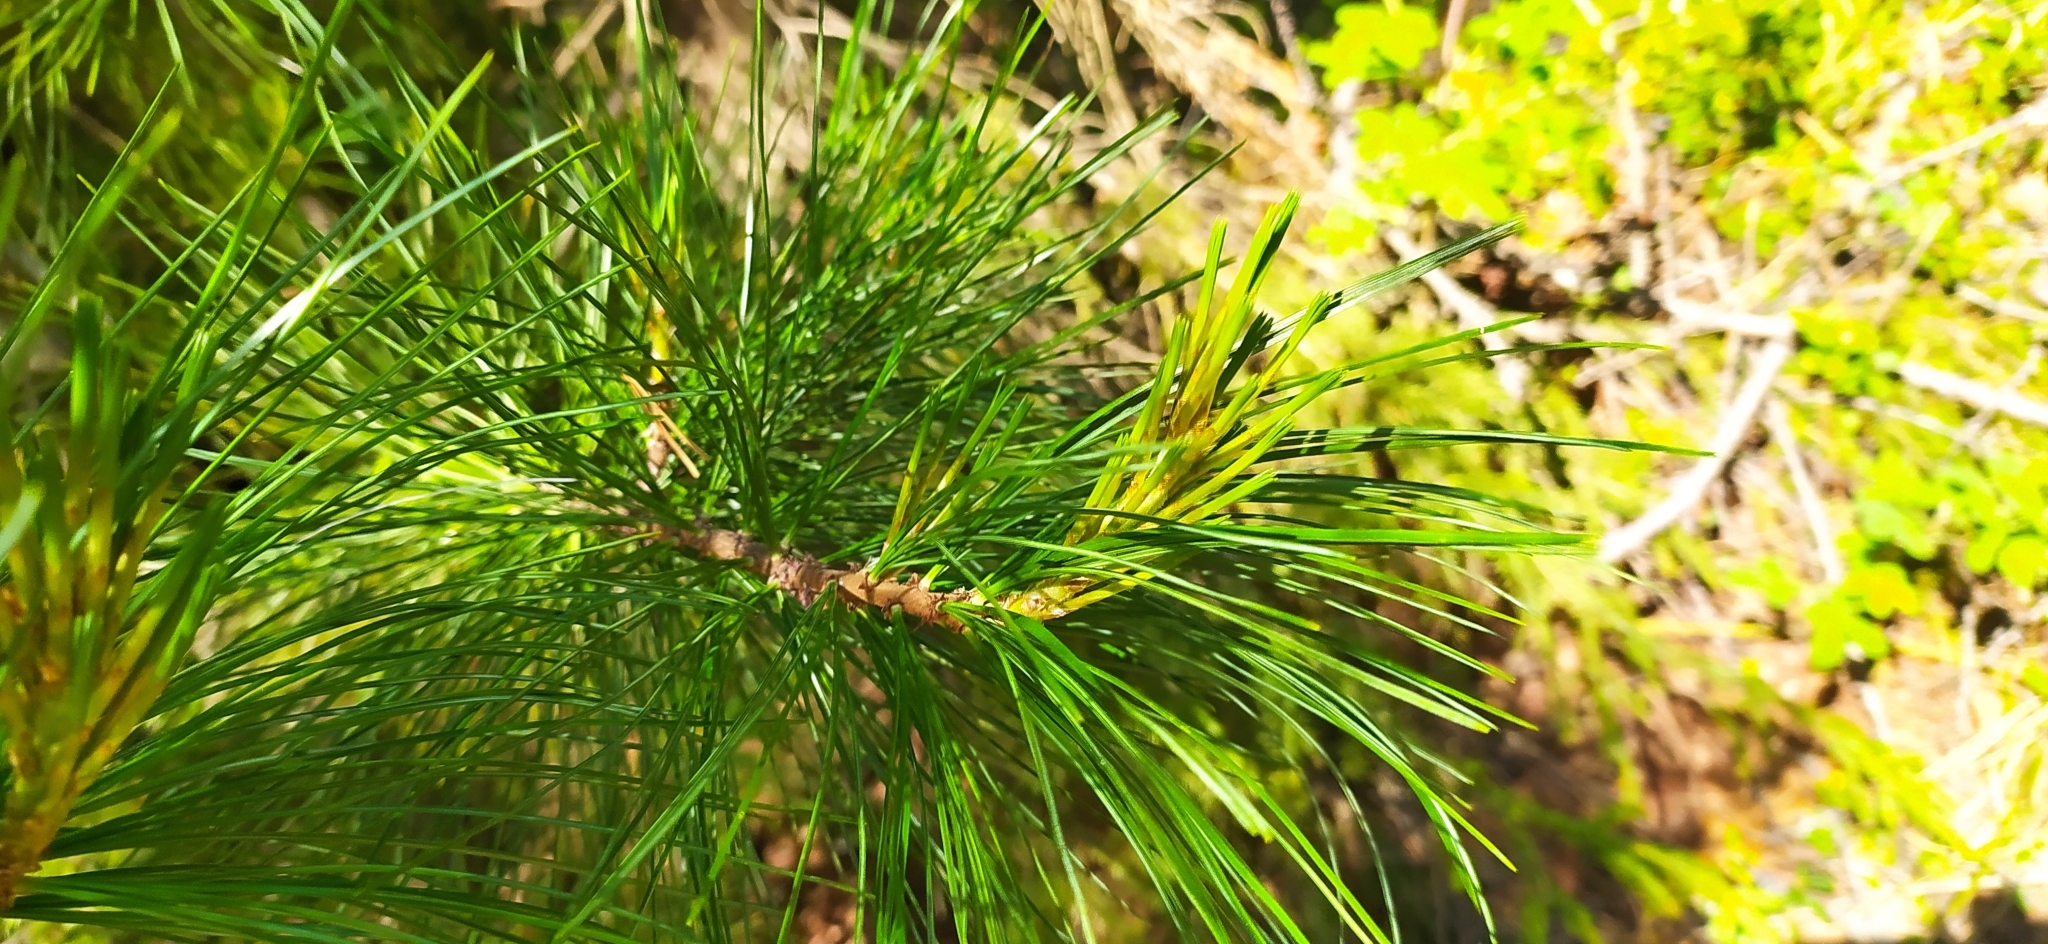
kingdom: Plantae
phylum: Tracheophyta
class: Pinopsida
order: Pinales
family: Pinaceae
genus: Pinus
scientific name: Pinus sibirica
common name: Siberian pine
